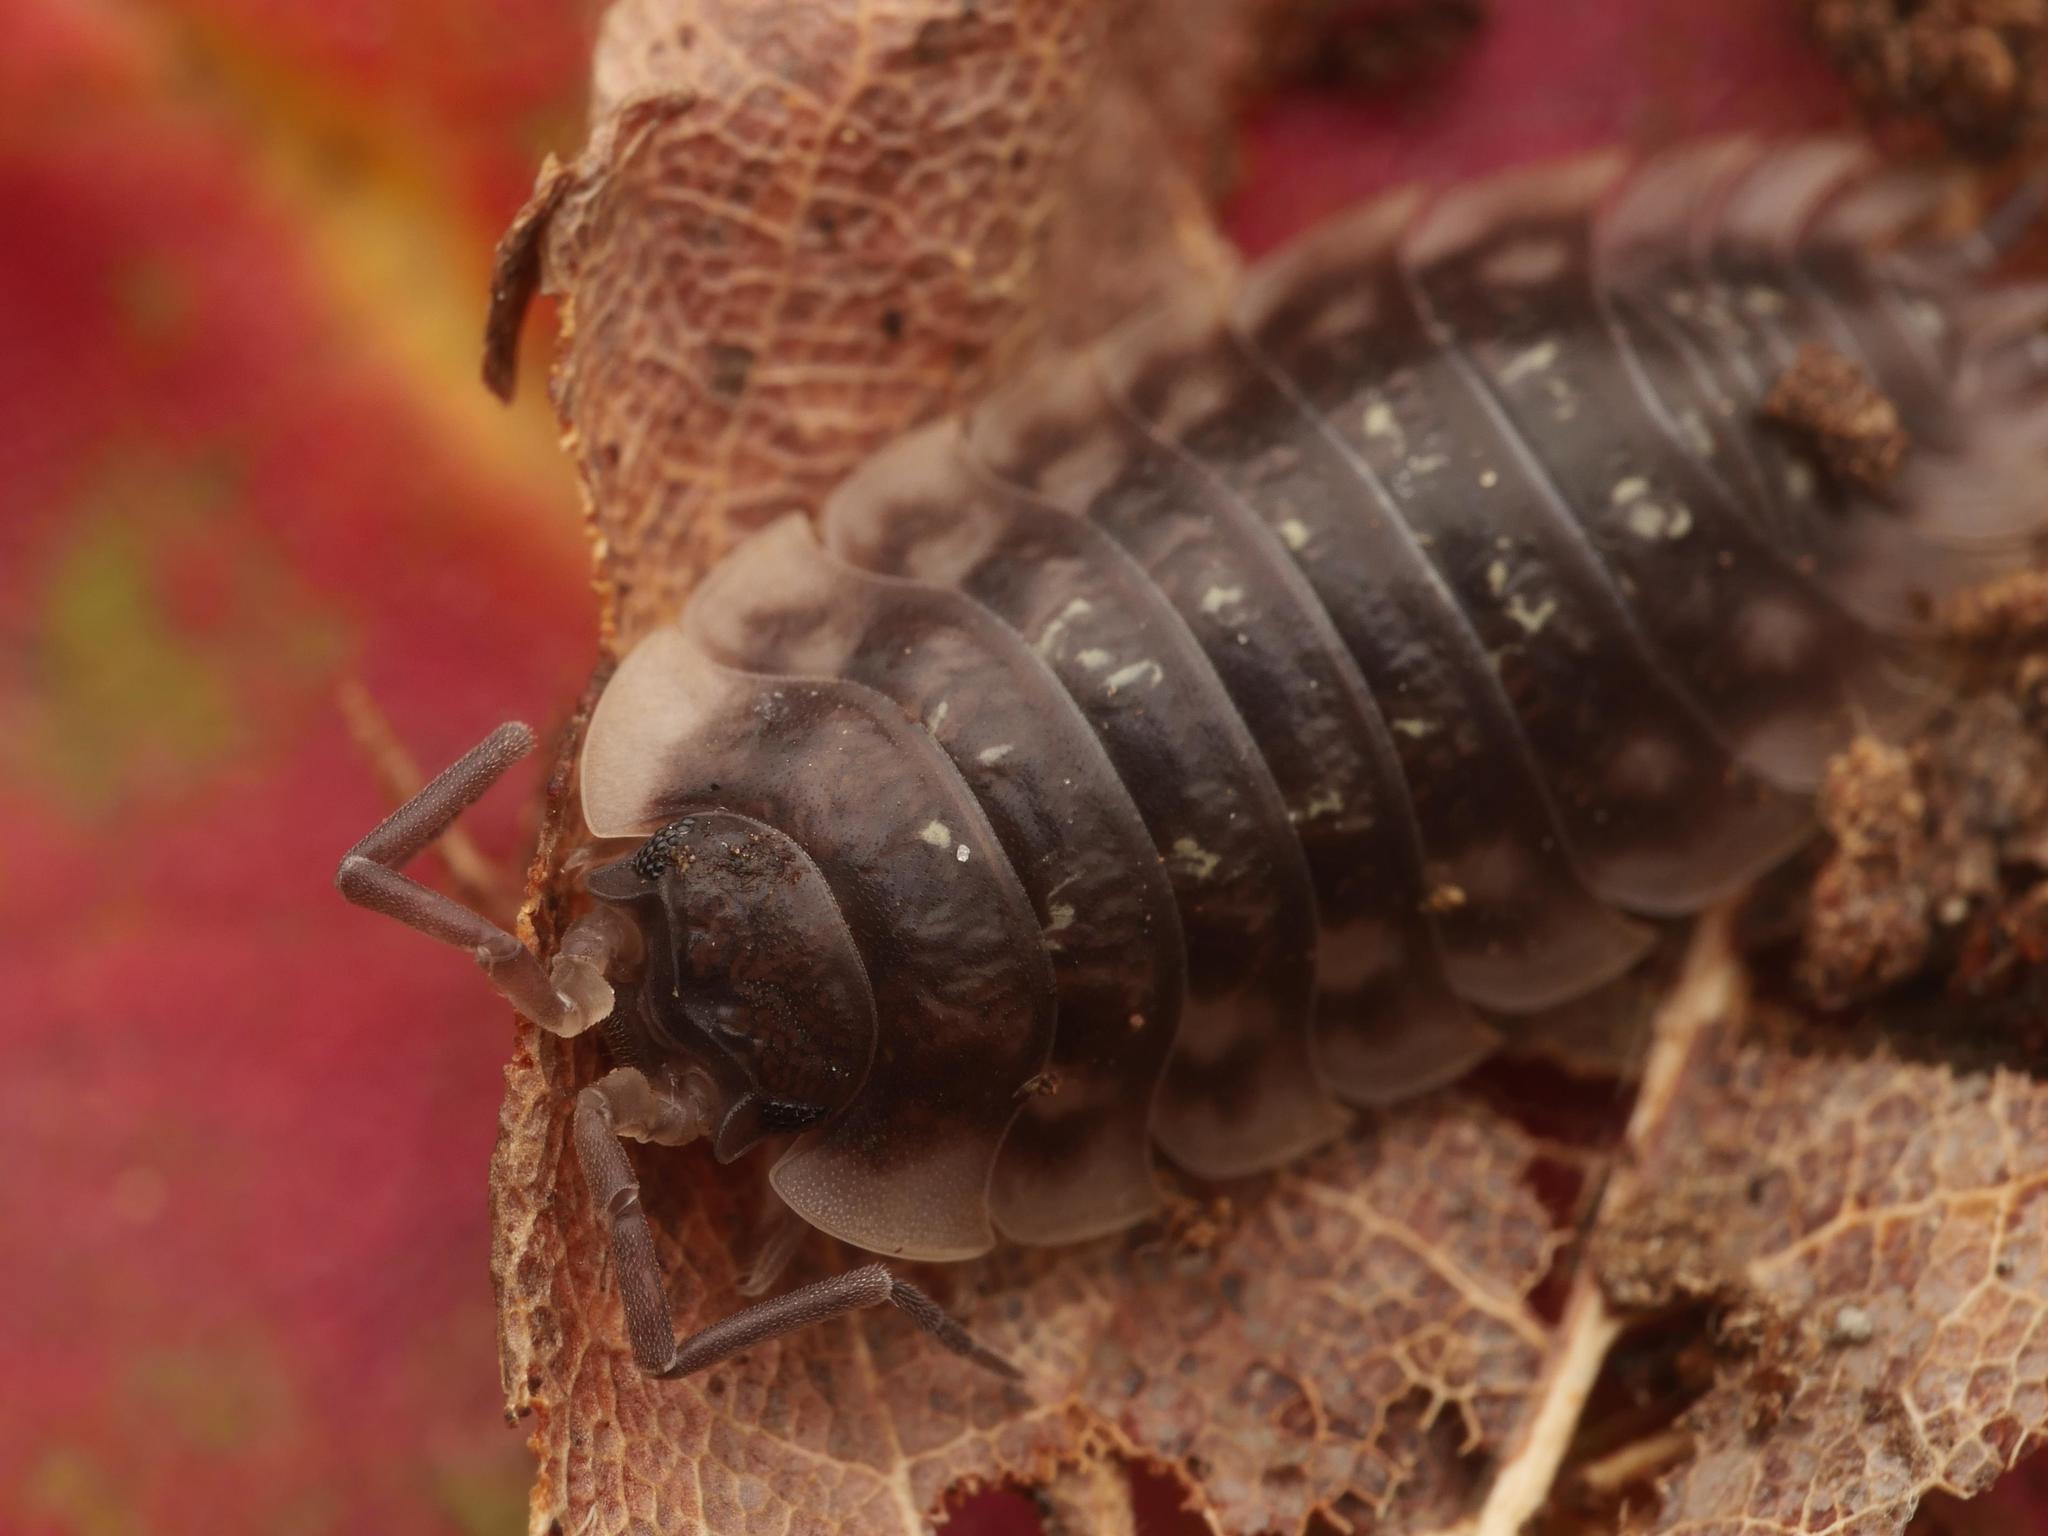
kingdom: Animalia
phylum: Arthropoda
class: Malacostraca
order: Isopoda
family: Oniscidae
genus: Oniscus
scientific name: Oniscus asellus
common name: Common shiny woodlouse
